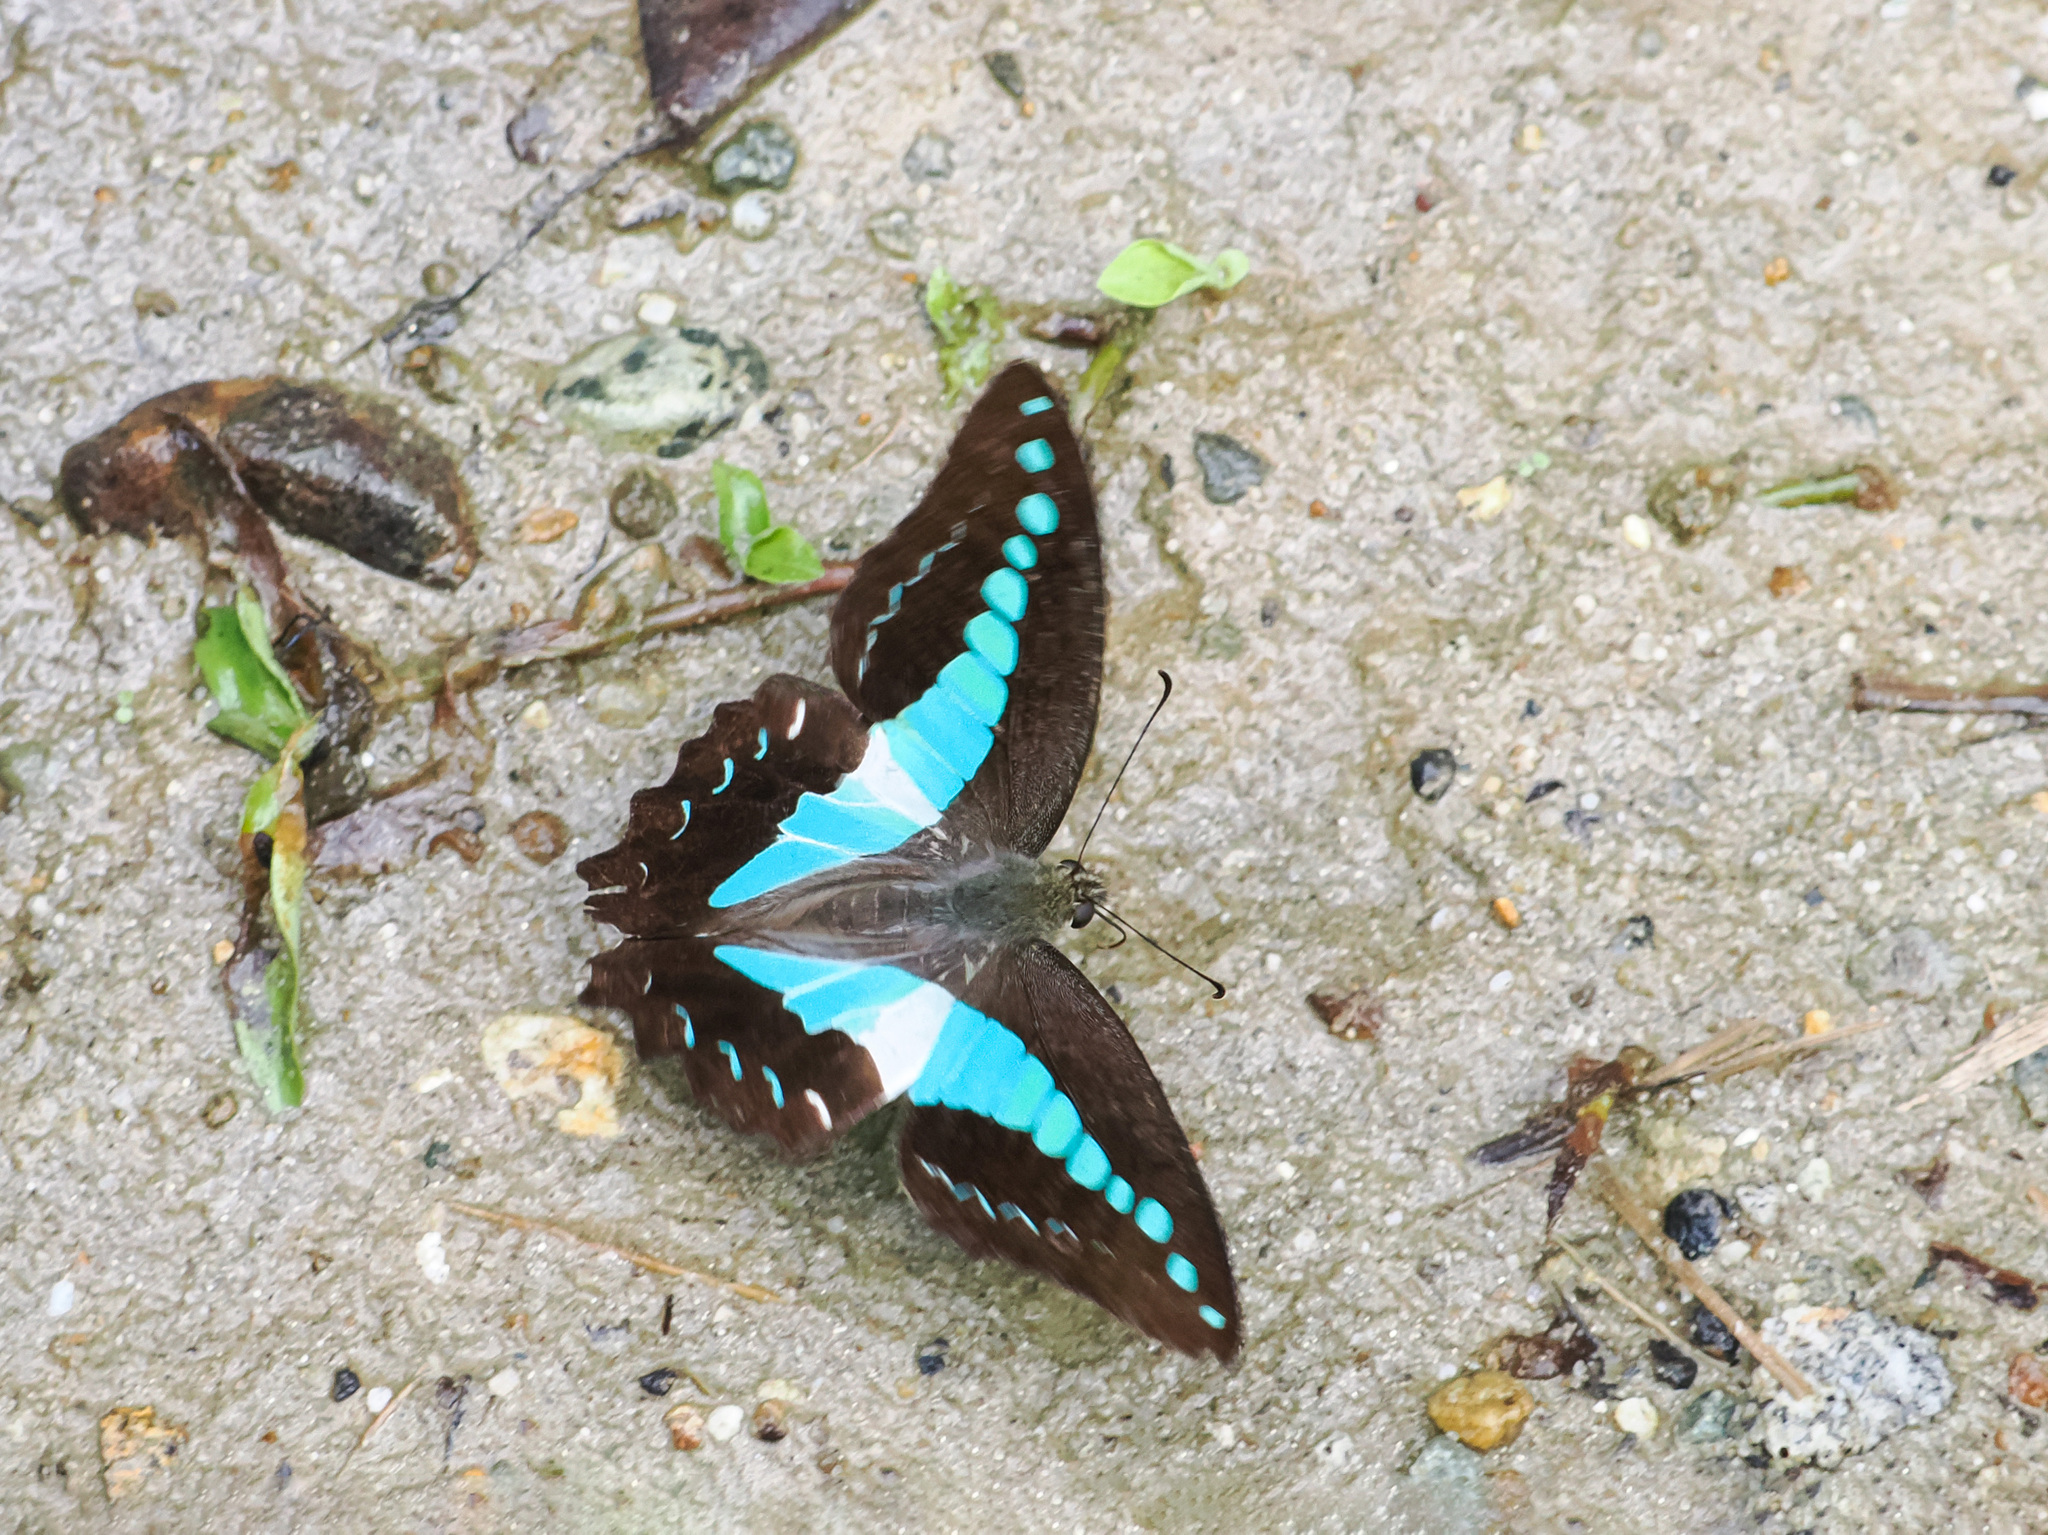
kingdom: Animalia
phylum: Arthropoda
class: Insecta
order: Lepidoptera
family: Papilionidae
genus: Graphium
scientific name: Graphium monticolus
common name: Sulawesi blue triangle
